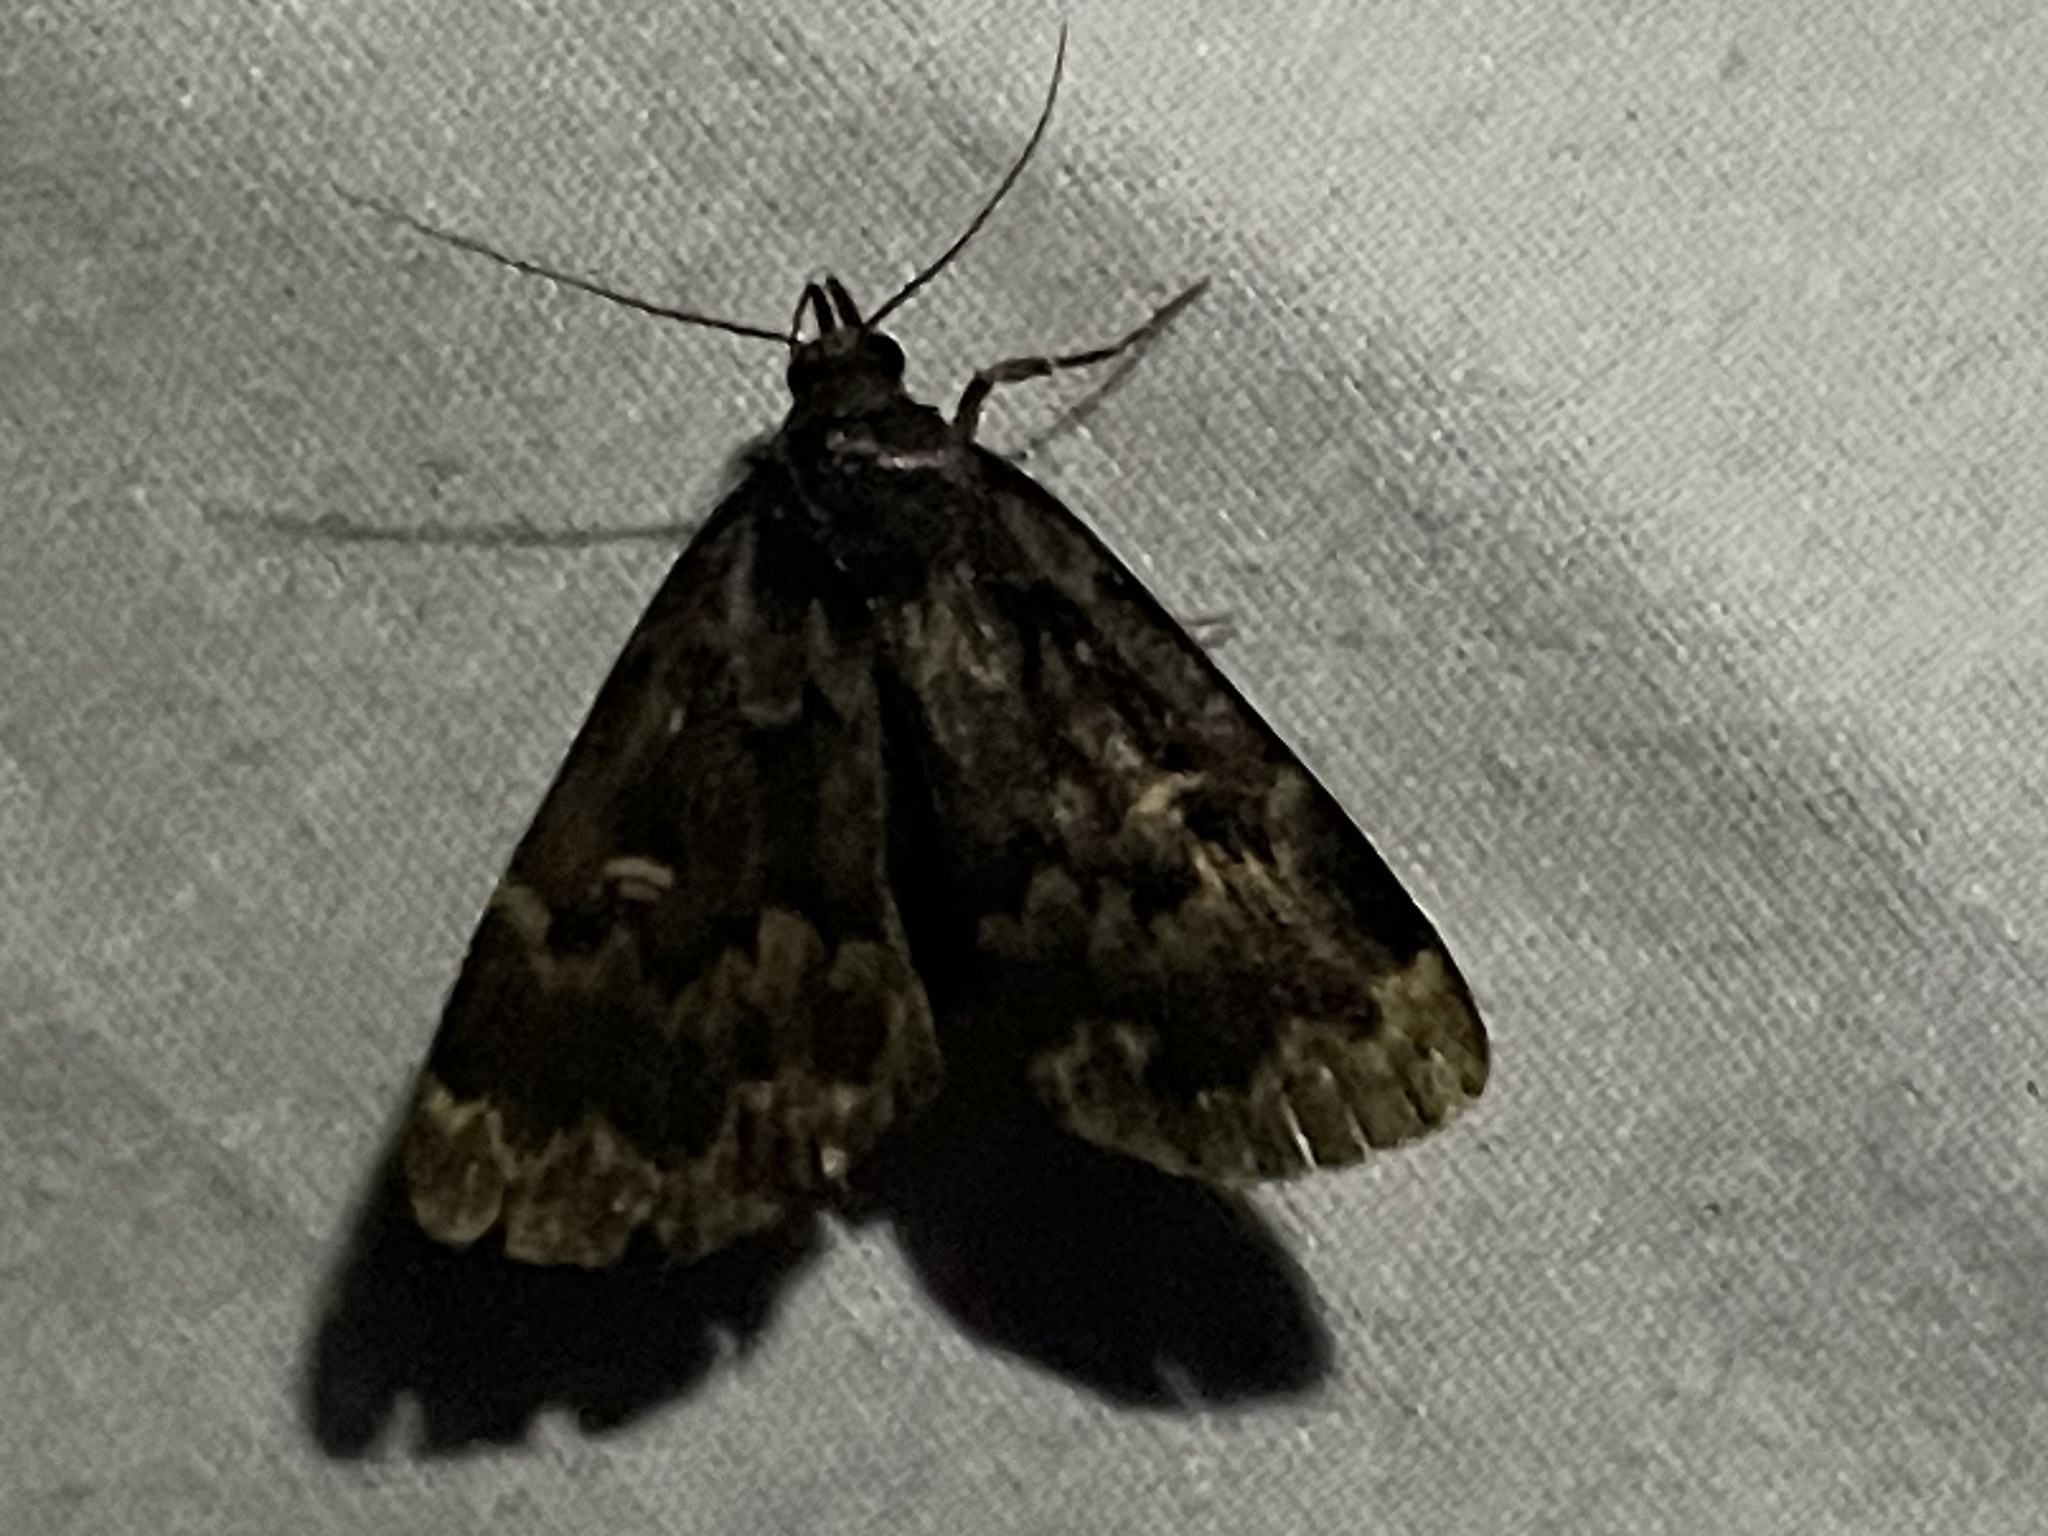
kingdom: Animalia
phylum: Arthropoda
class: Insecta
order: Lepidoptera
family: Erebidae
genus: Idia
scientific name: Idia lubricalis
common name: Twin-striped tabby
